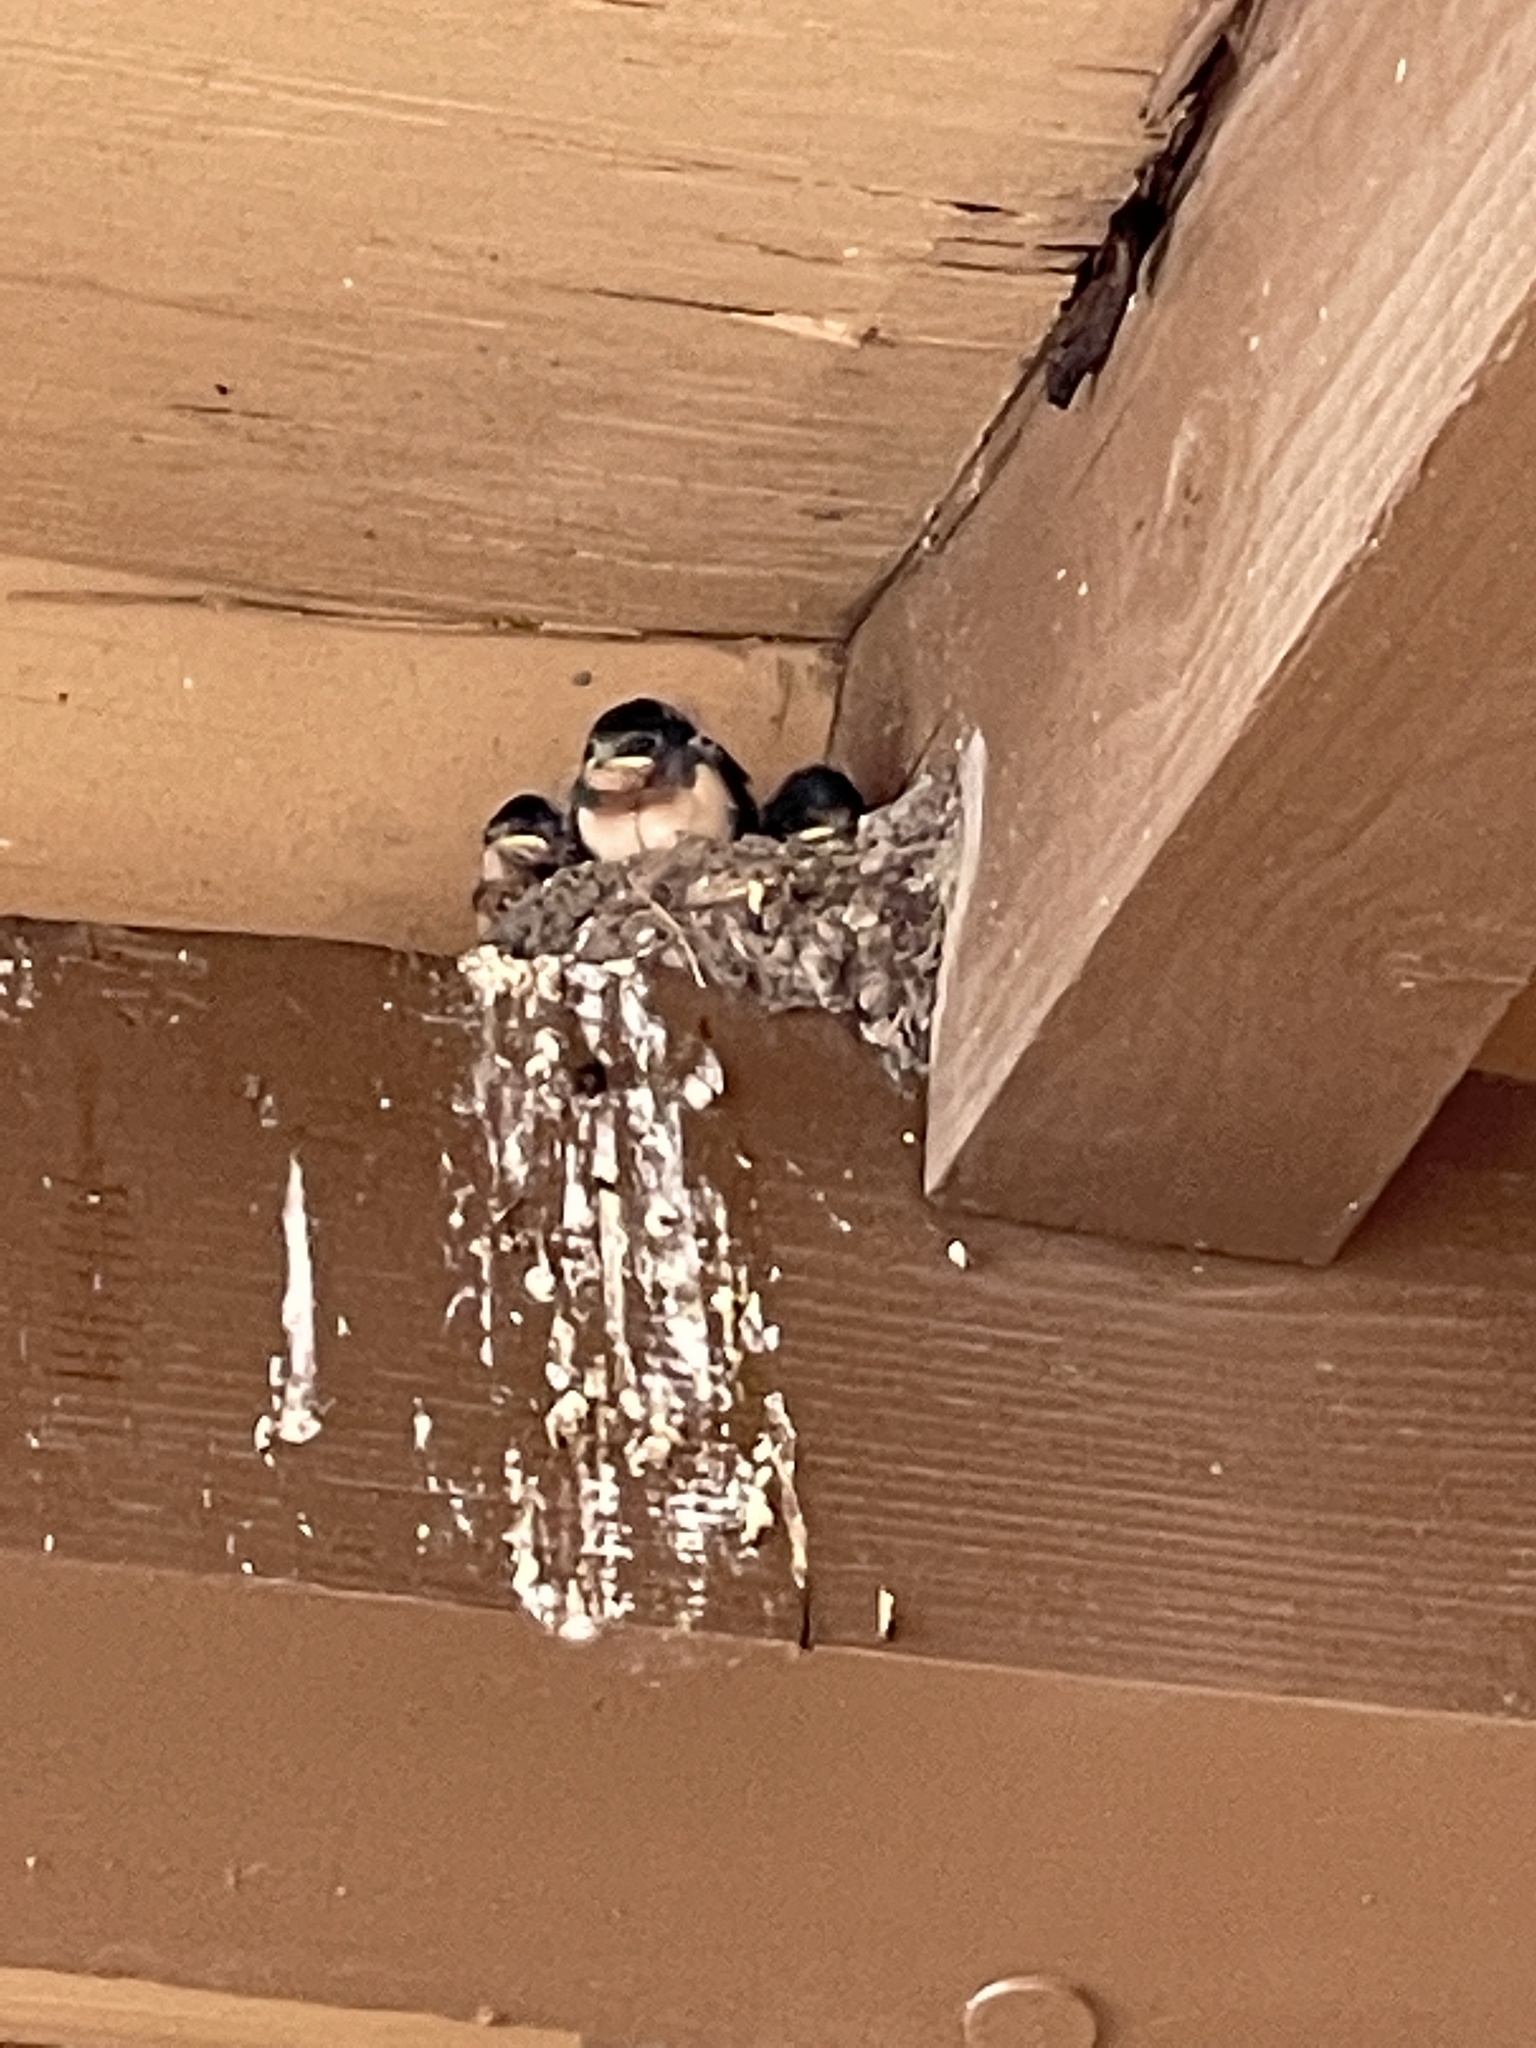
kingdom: Animalia
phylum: Chordata
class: Aves
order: Passeriformes
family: Hirundinidae
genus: Hirundo
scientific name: Hirundo rustica
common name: Barn swallow
